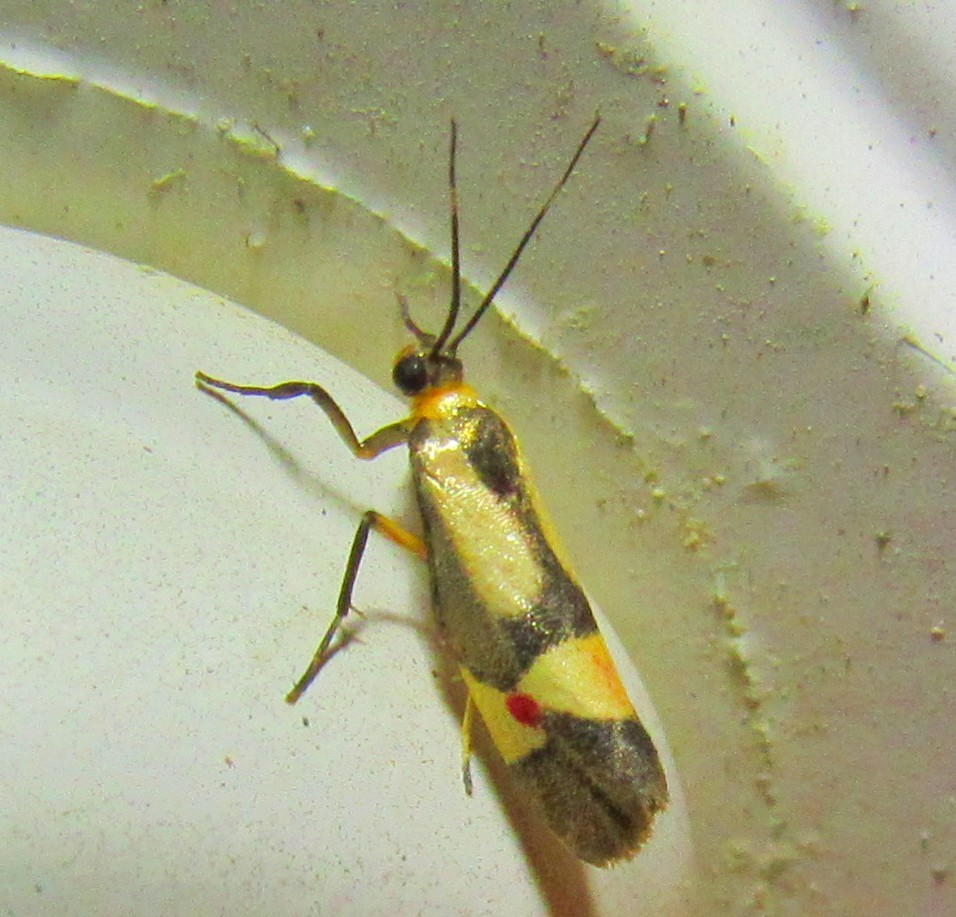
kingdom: Animalia
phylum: Arthropoda
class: Insecta
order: Lepidoptera
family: Erebidae
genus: Nodozana
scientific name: Nodozana coresa
